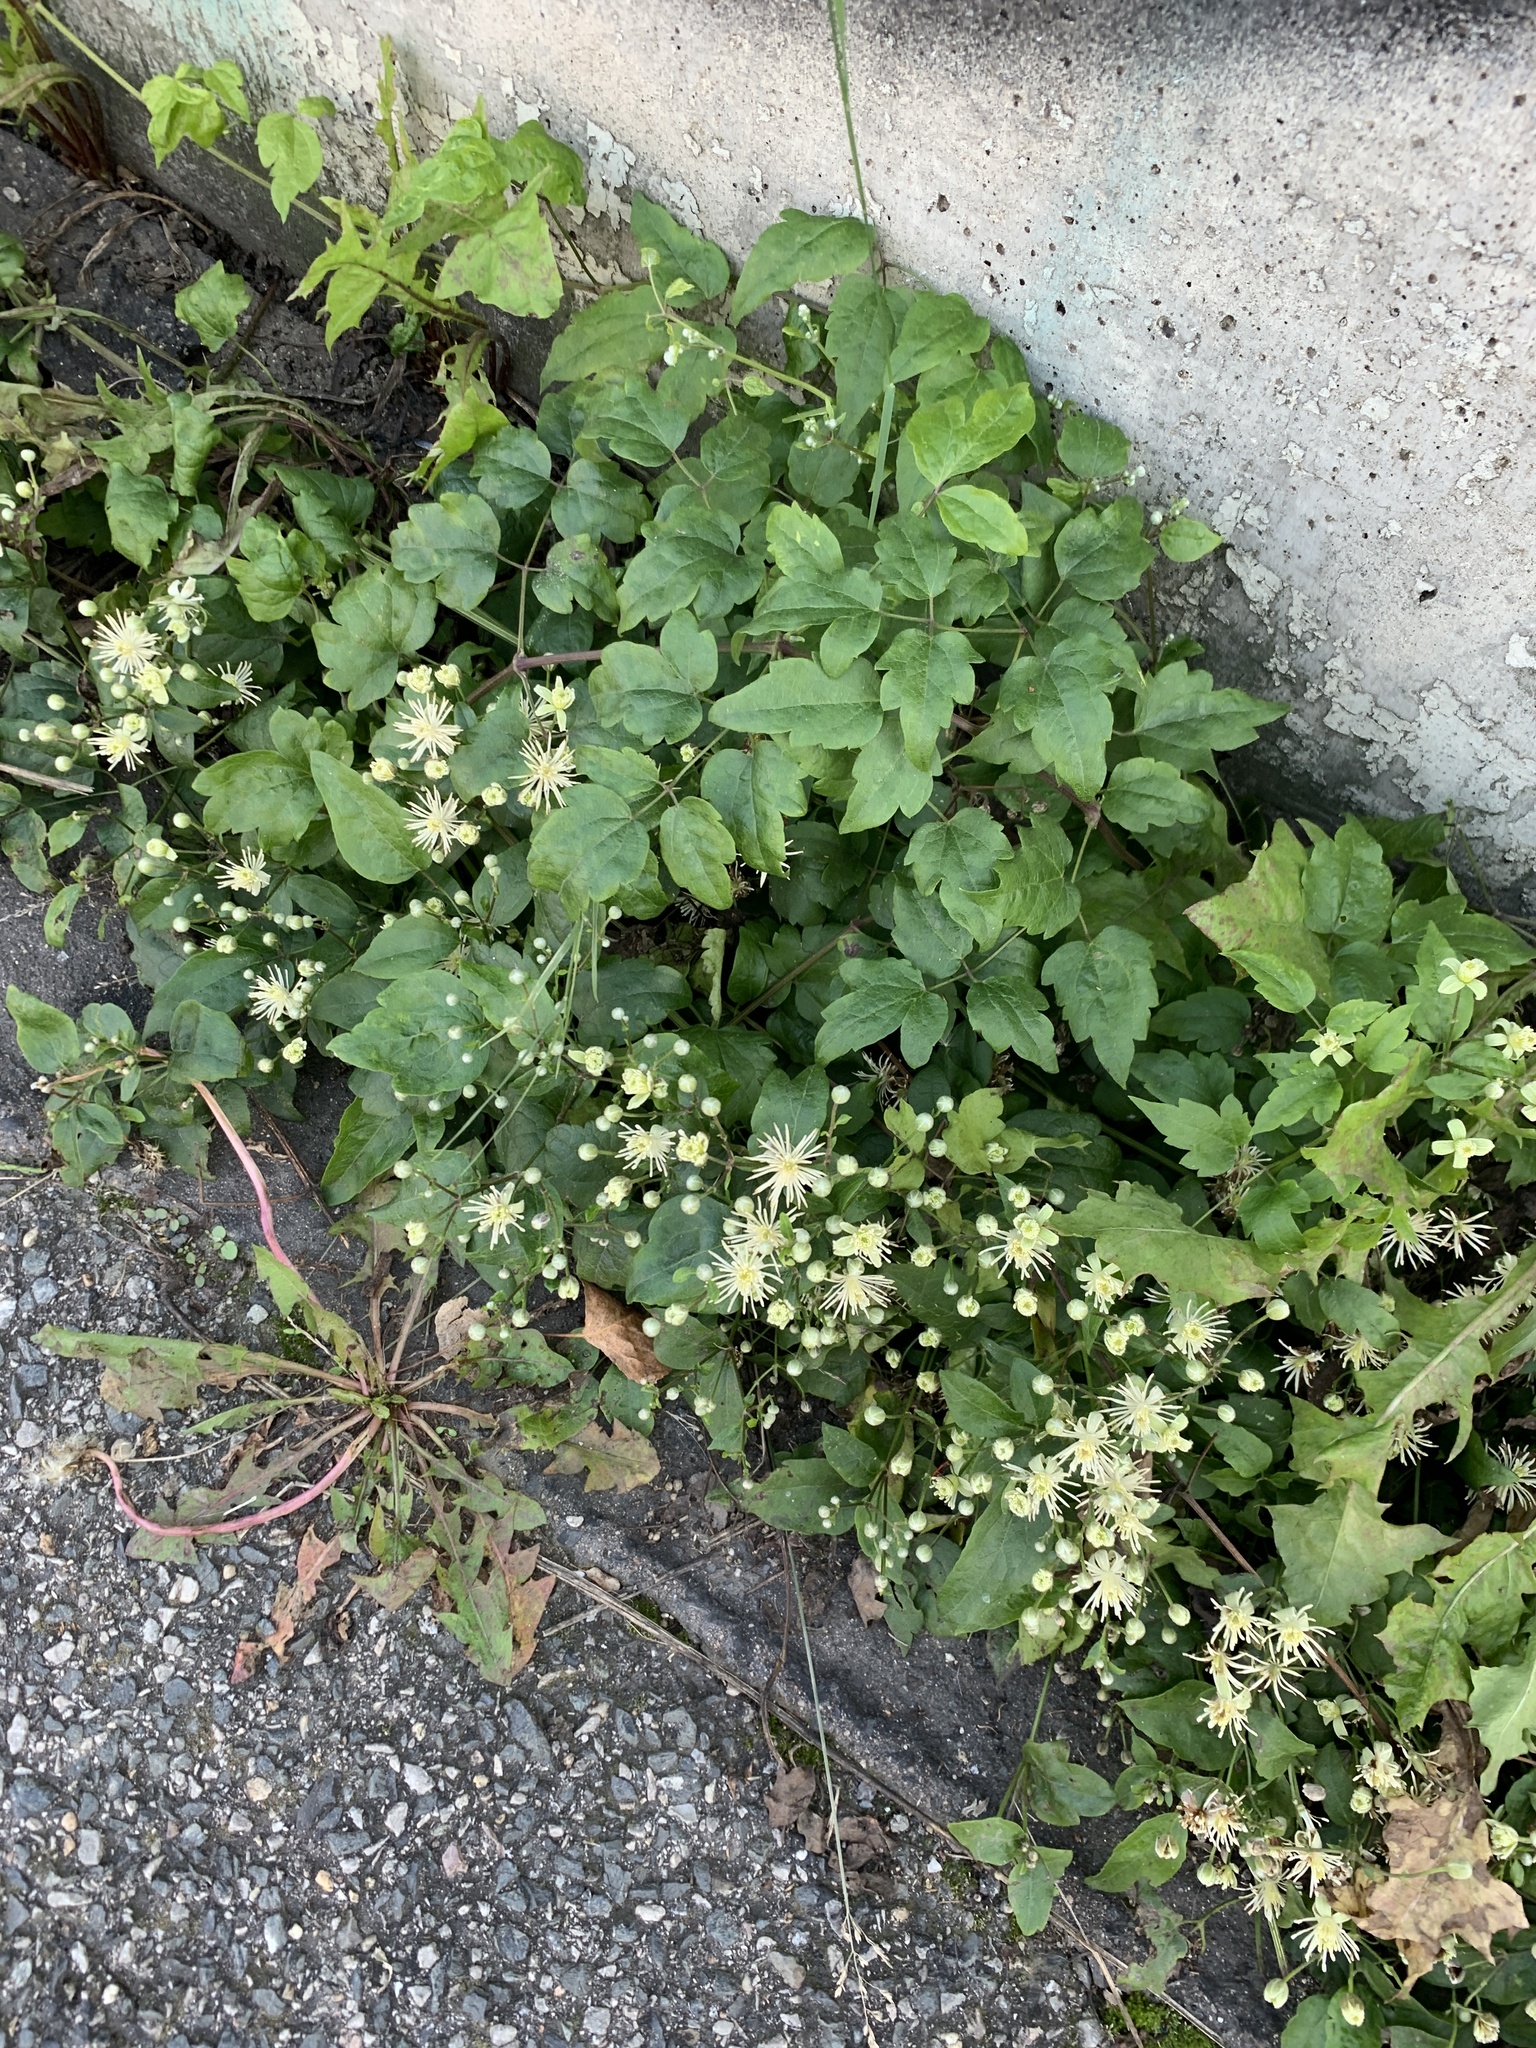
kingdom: Plantae
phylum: Tracheophyta
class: Magnoliopsida
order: Ranunculales
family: Ranunculaceae
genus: Clematis
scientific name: Clematis vitalba
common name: Evergreen clematis
